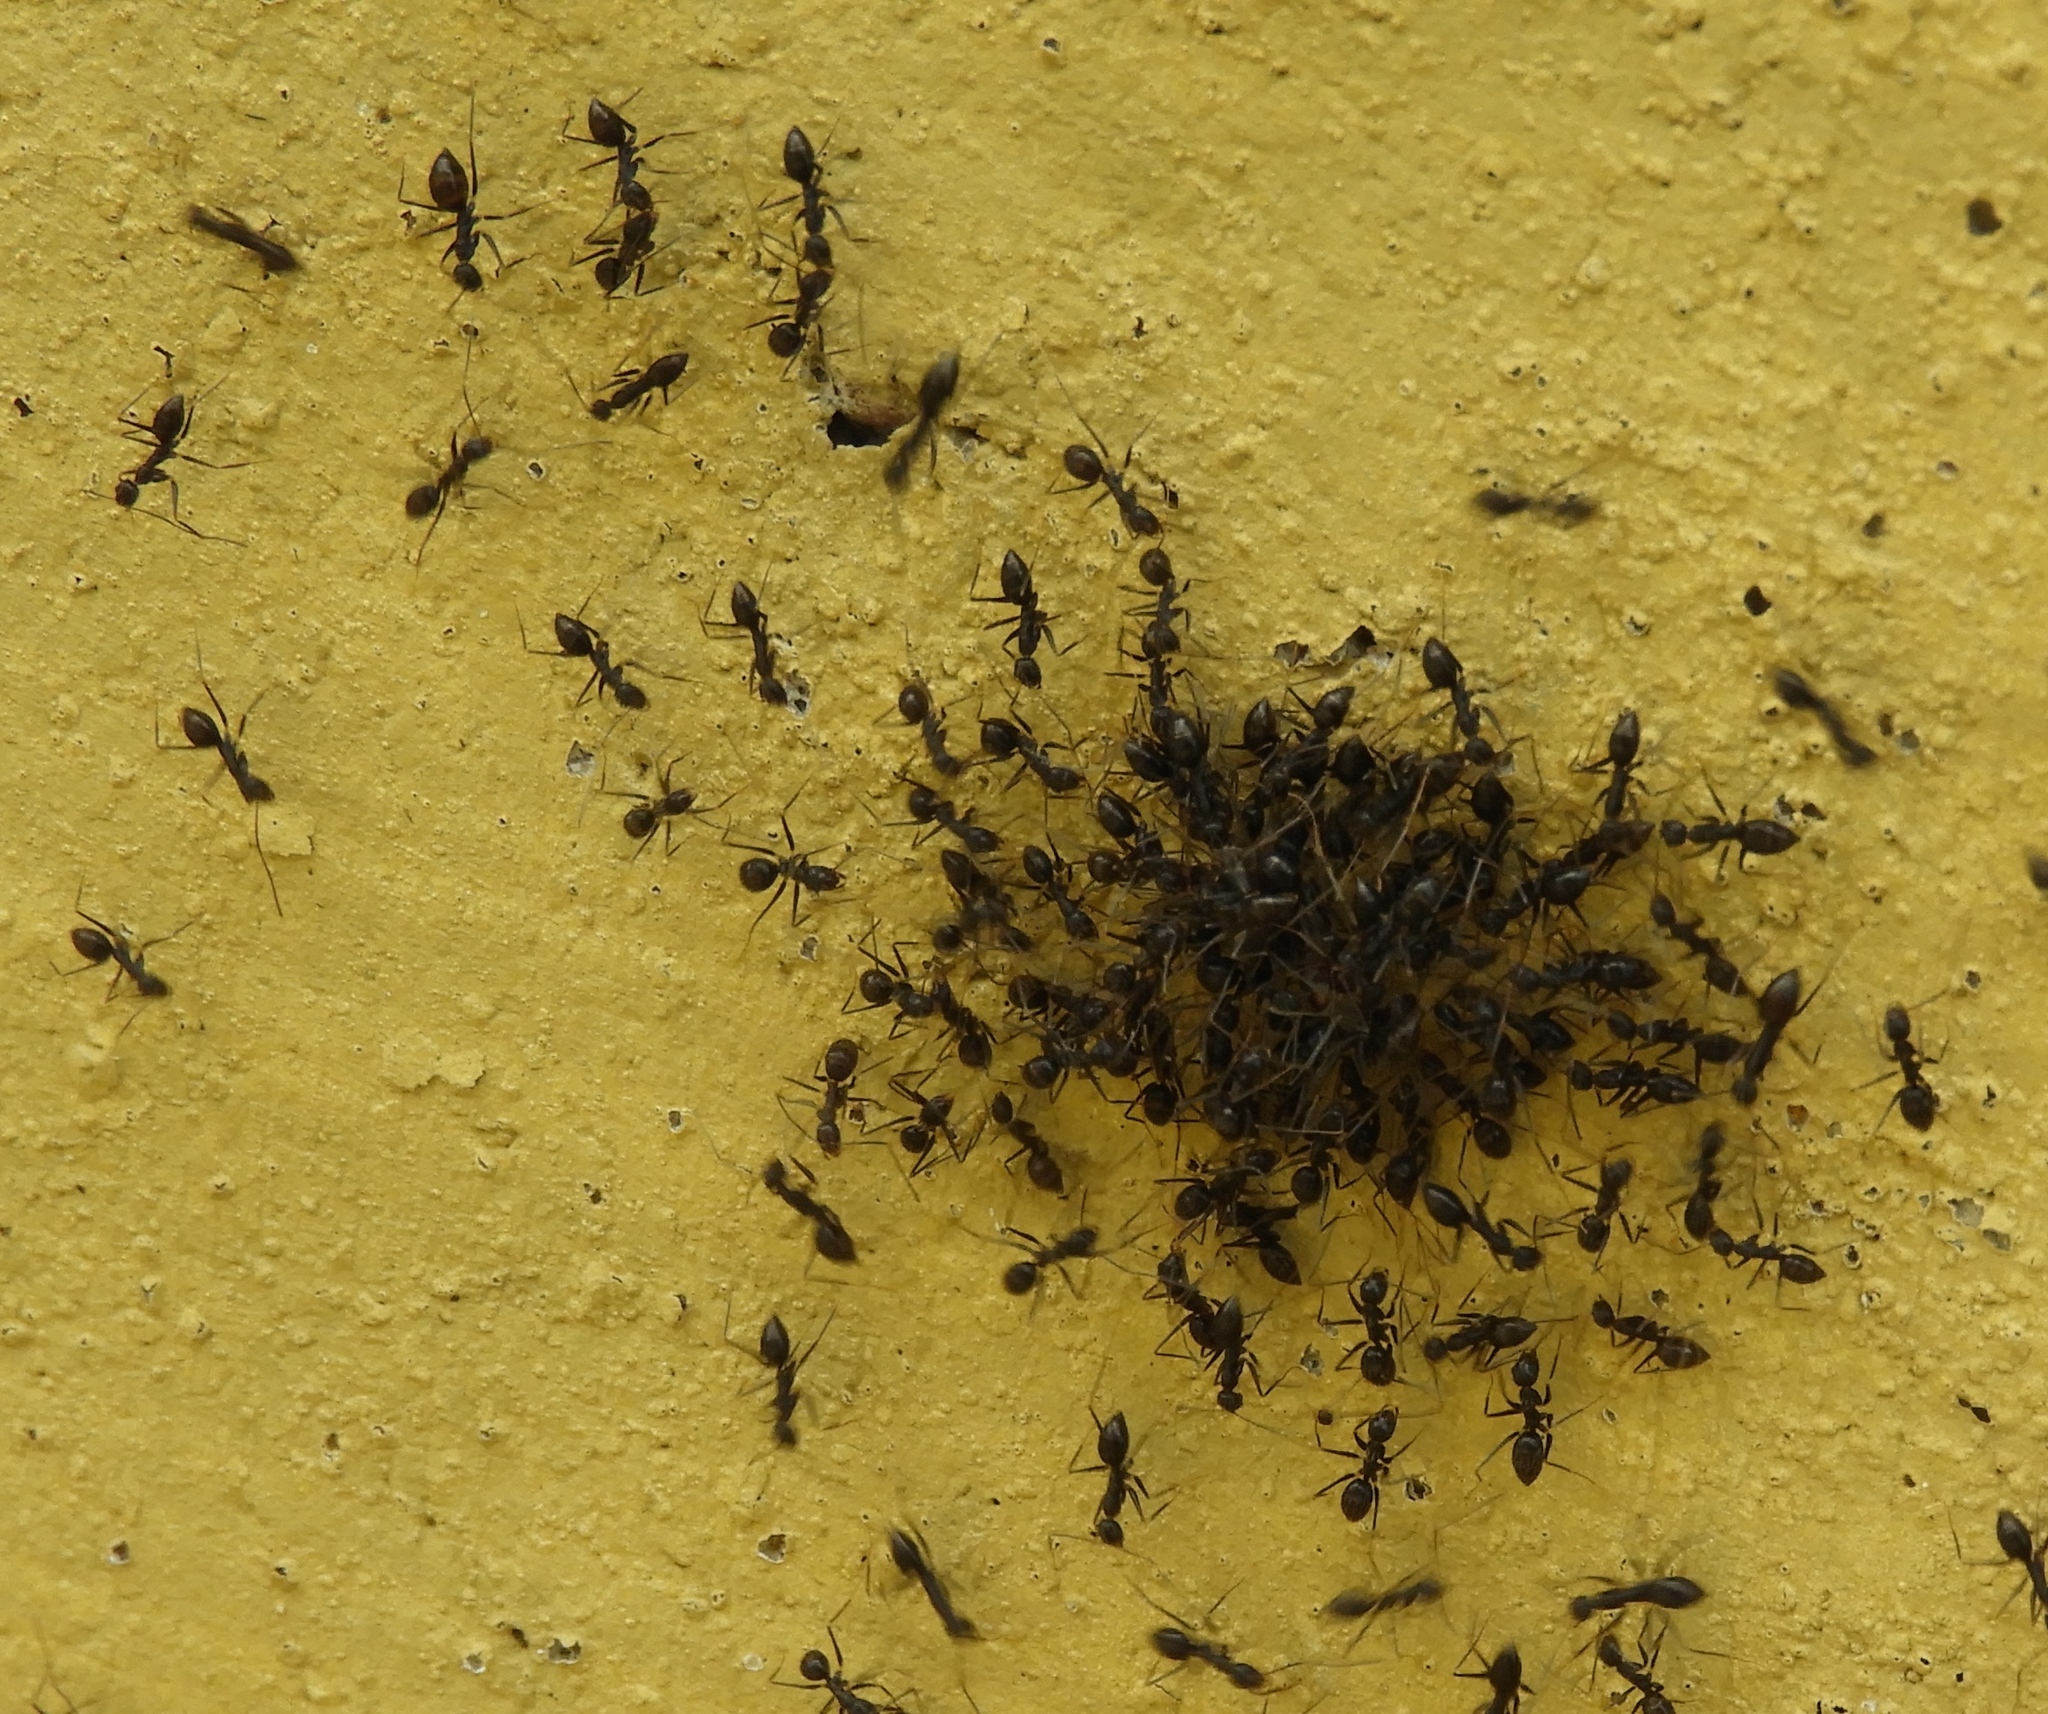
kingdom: Animalia
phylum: Arthropoda
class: Insecta
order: Hymenoptera
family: Formicidae
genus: Paratrechina
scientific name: Paratrechina longicornis
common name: Longhorned crazy ant
